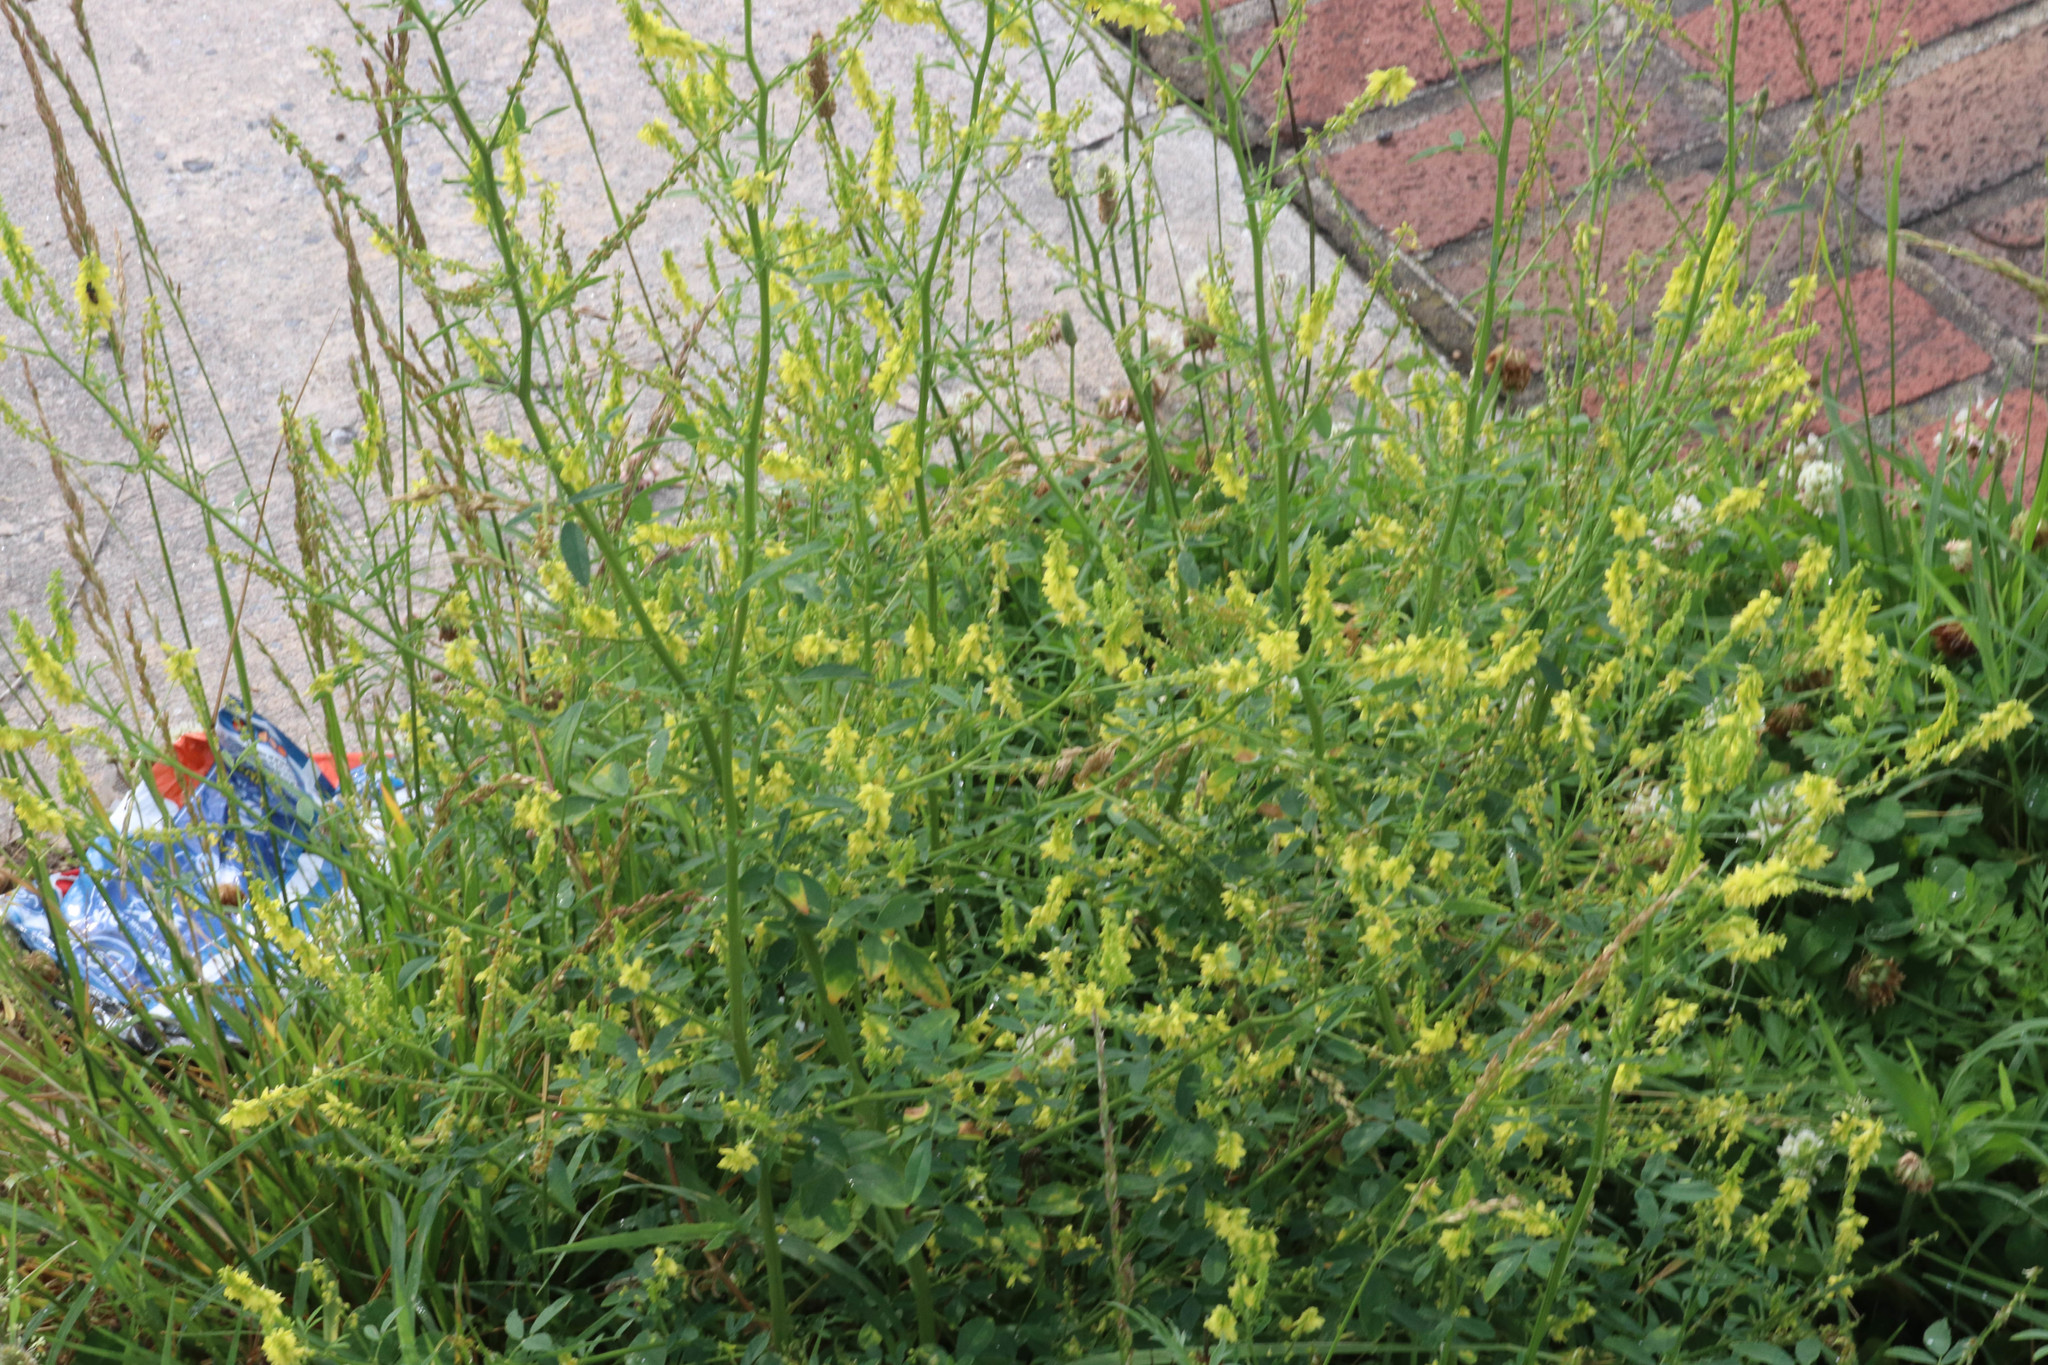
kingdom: Plantae
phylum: Tracheophyta
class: Magnoliopsida
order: Fabales
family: Fabaceae
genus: Melilotus
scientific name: Melilotus officinalis
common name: Sweetclover
